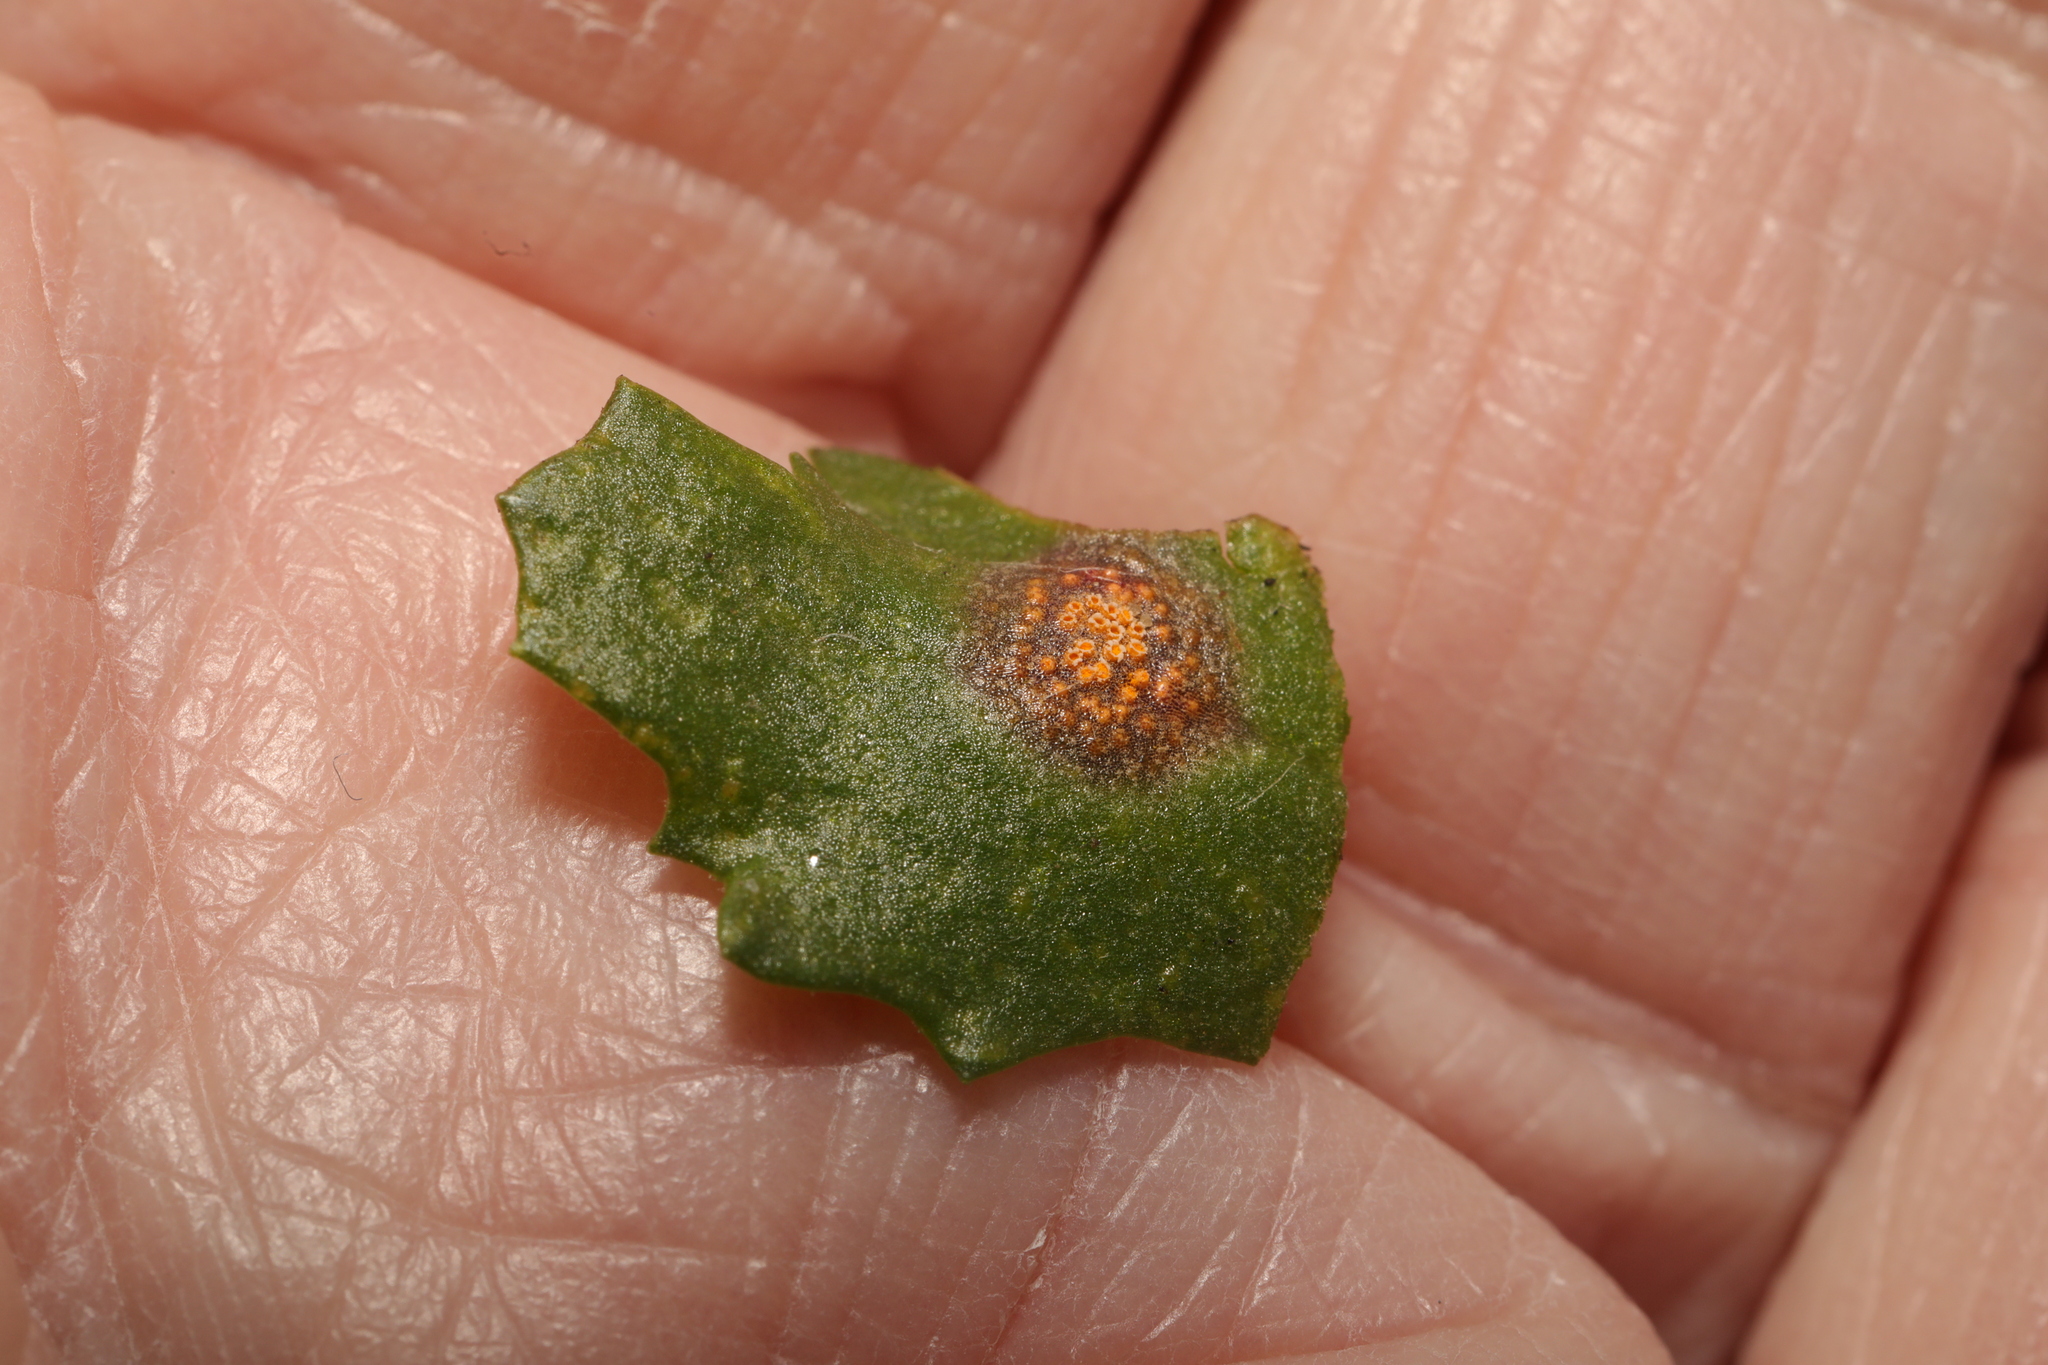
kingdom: Fungi
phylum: Basidiomycota
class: Pucciniomycetes
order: Pucciniales
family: Pucciniaceae
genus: Puccinia
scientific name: Puccinia lagenophorae
